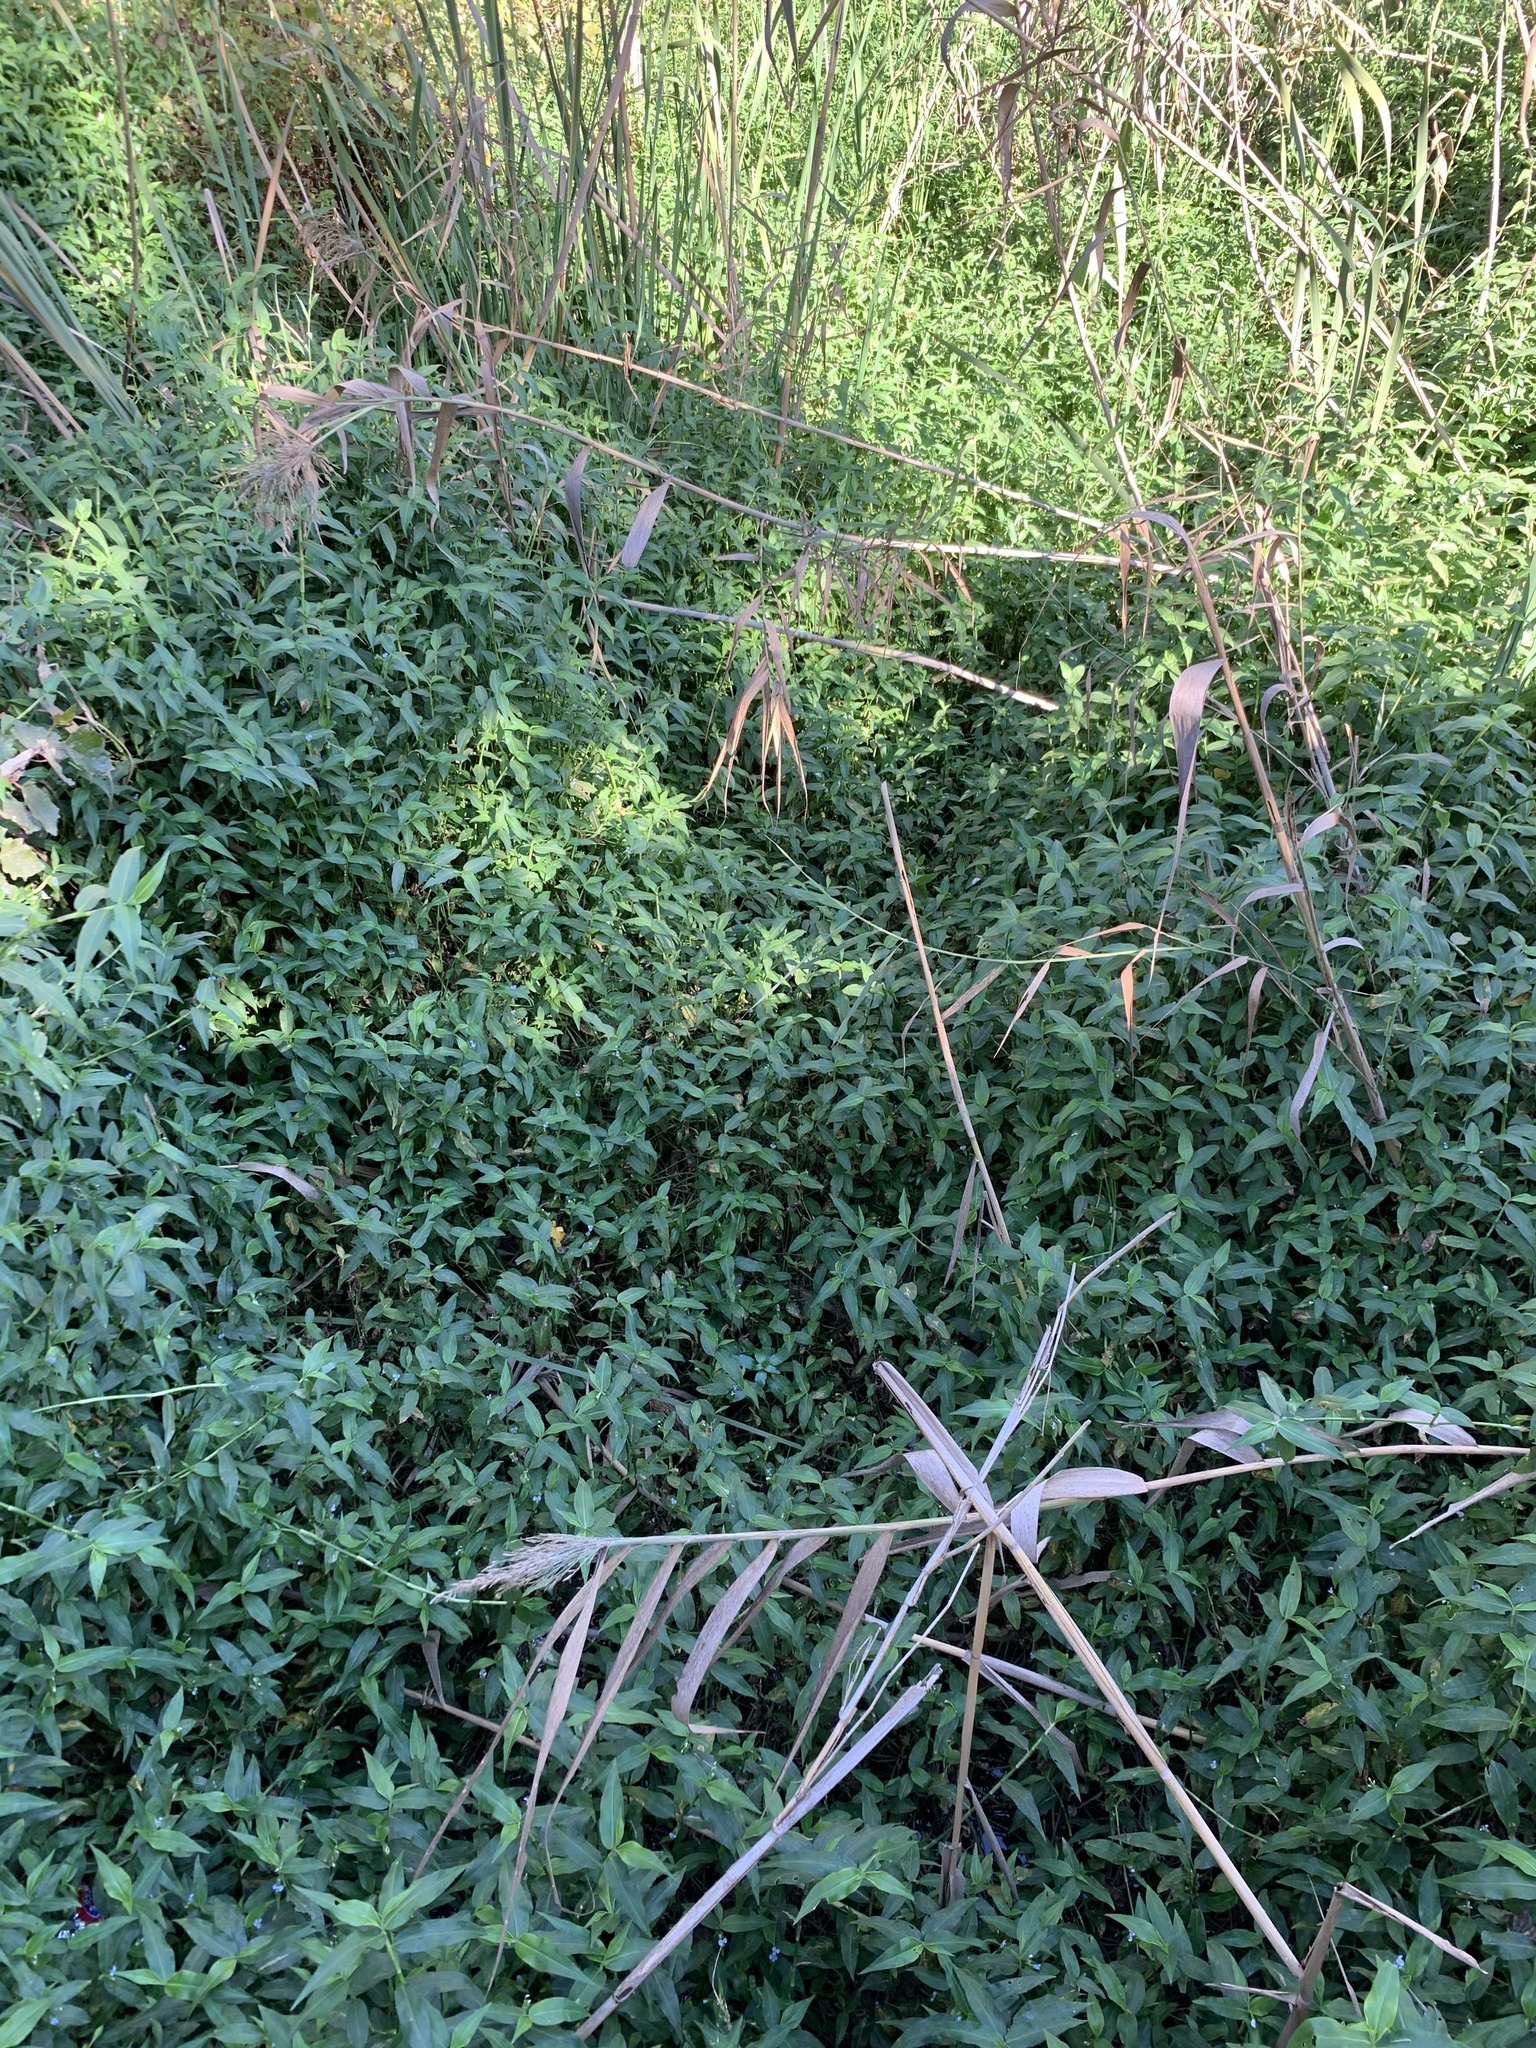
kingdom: Plantae
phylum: Tracheophyta
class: Liliopsida
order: Commelinales
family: Commelinaceae
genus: Commelina
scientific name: Commelina diffusa
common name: Climbing dayflower
